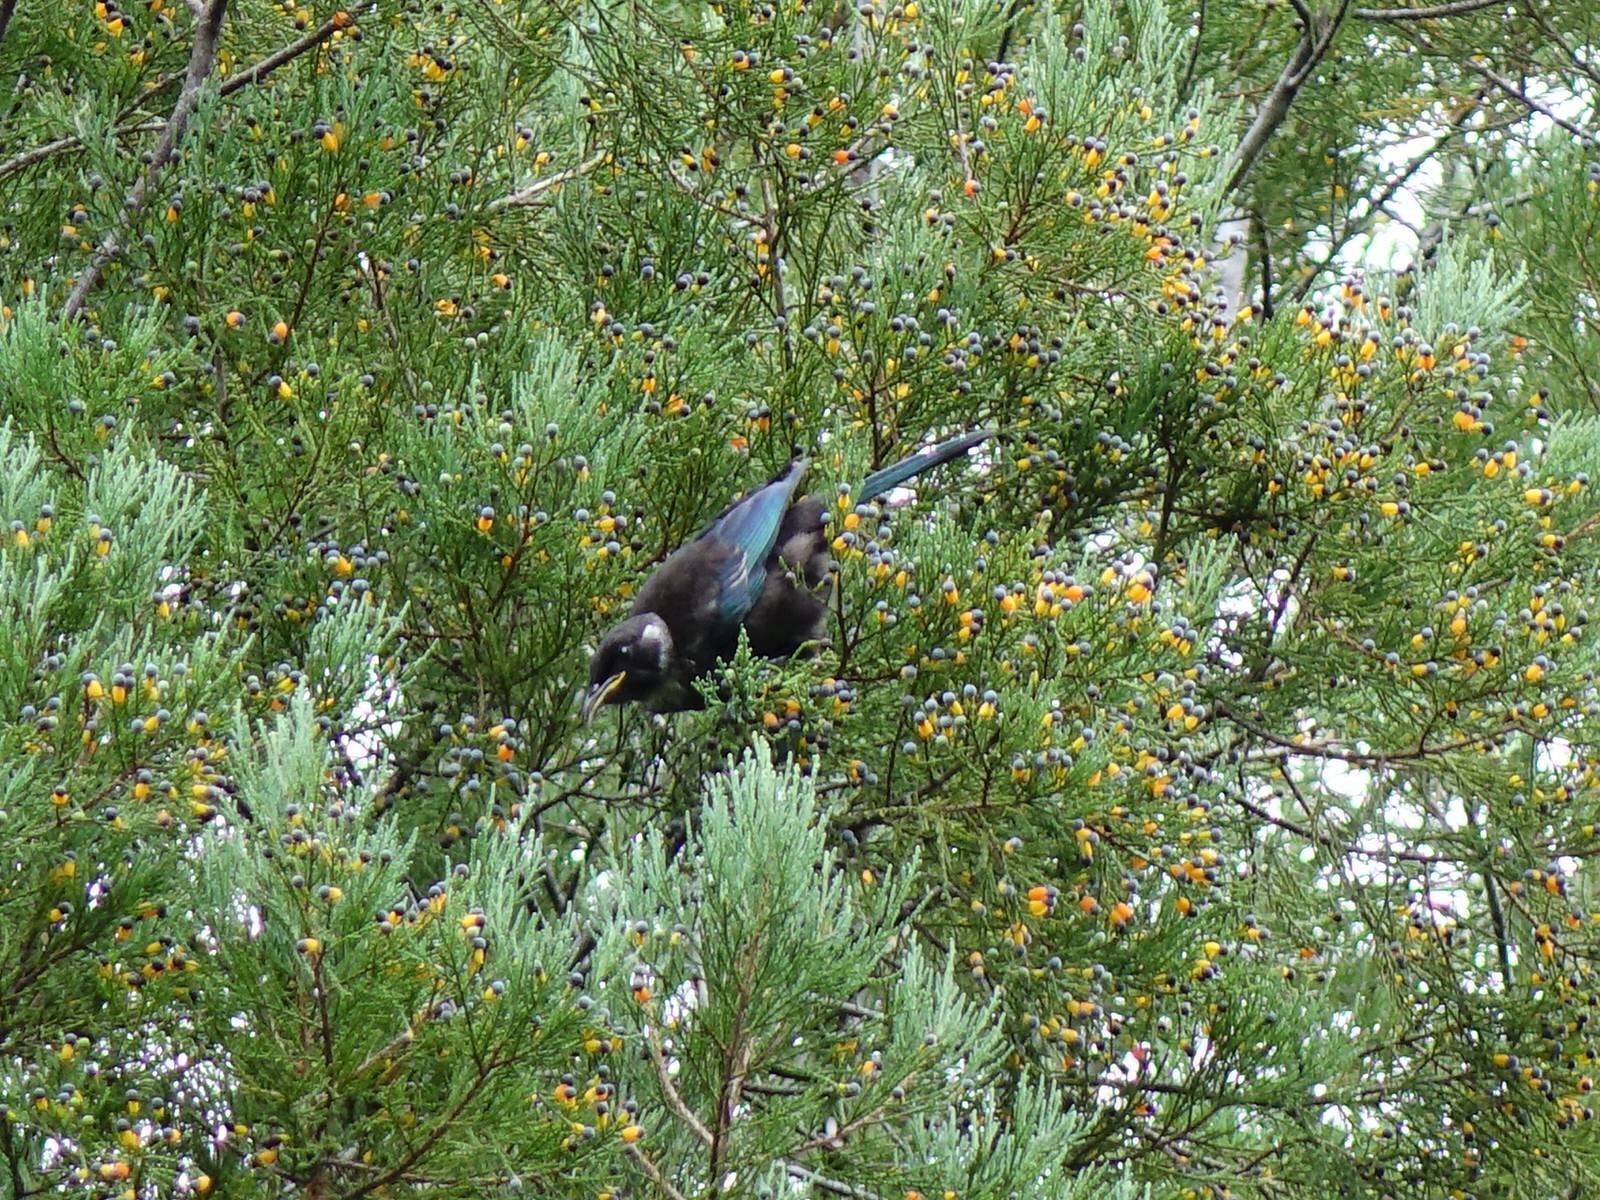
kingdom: Animalia
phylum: Chordata
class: Aves
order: Passeriformes
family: Meliphagidae
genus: Prosthemadera
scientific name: Prosthemadera novaeseelandiae
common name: Tui
